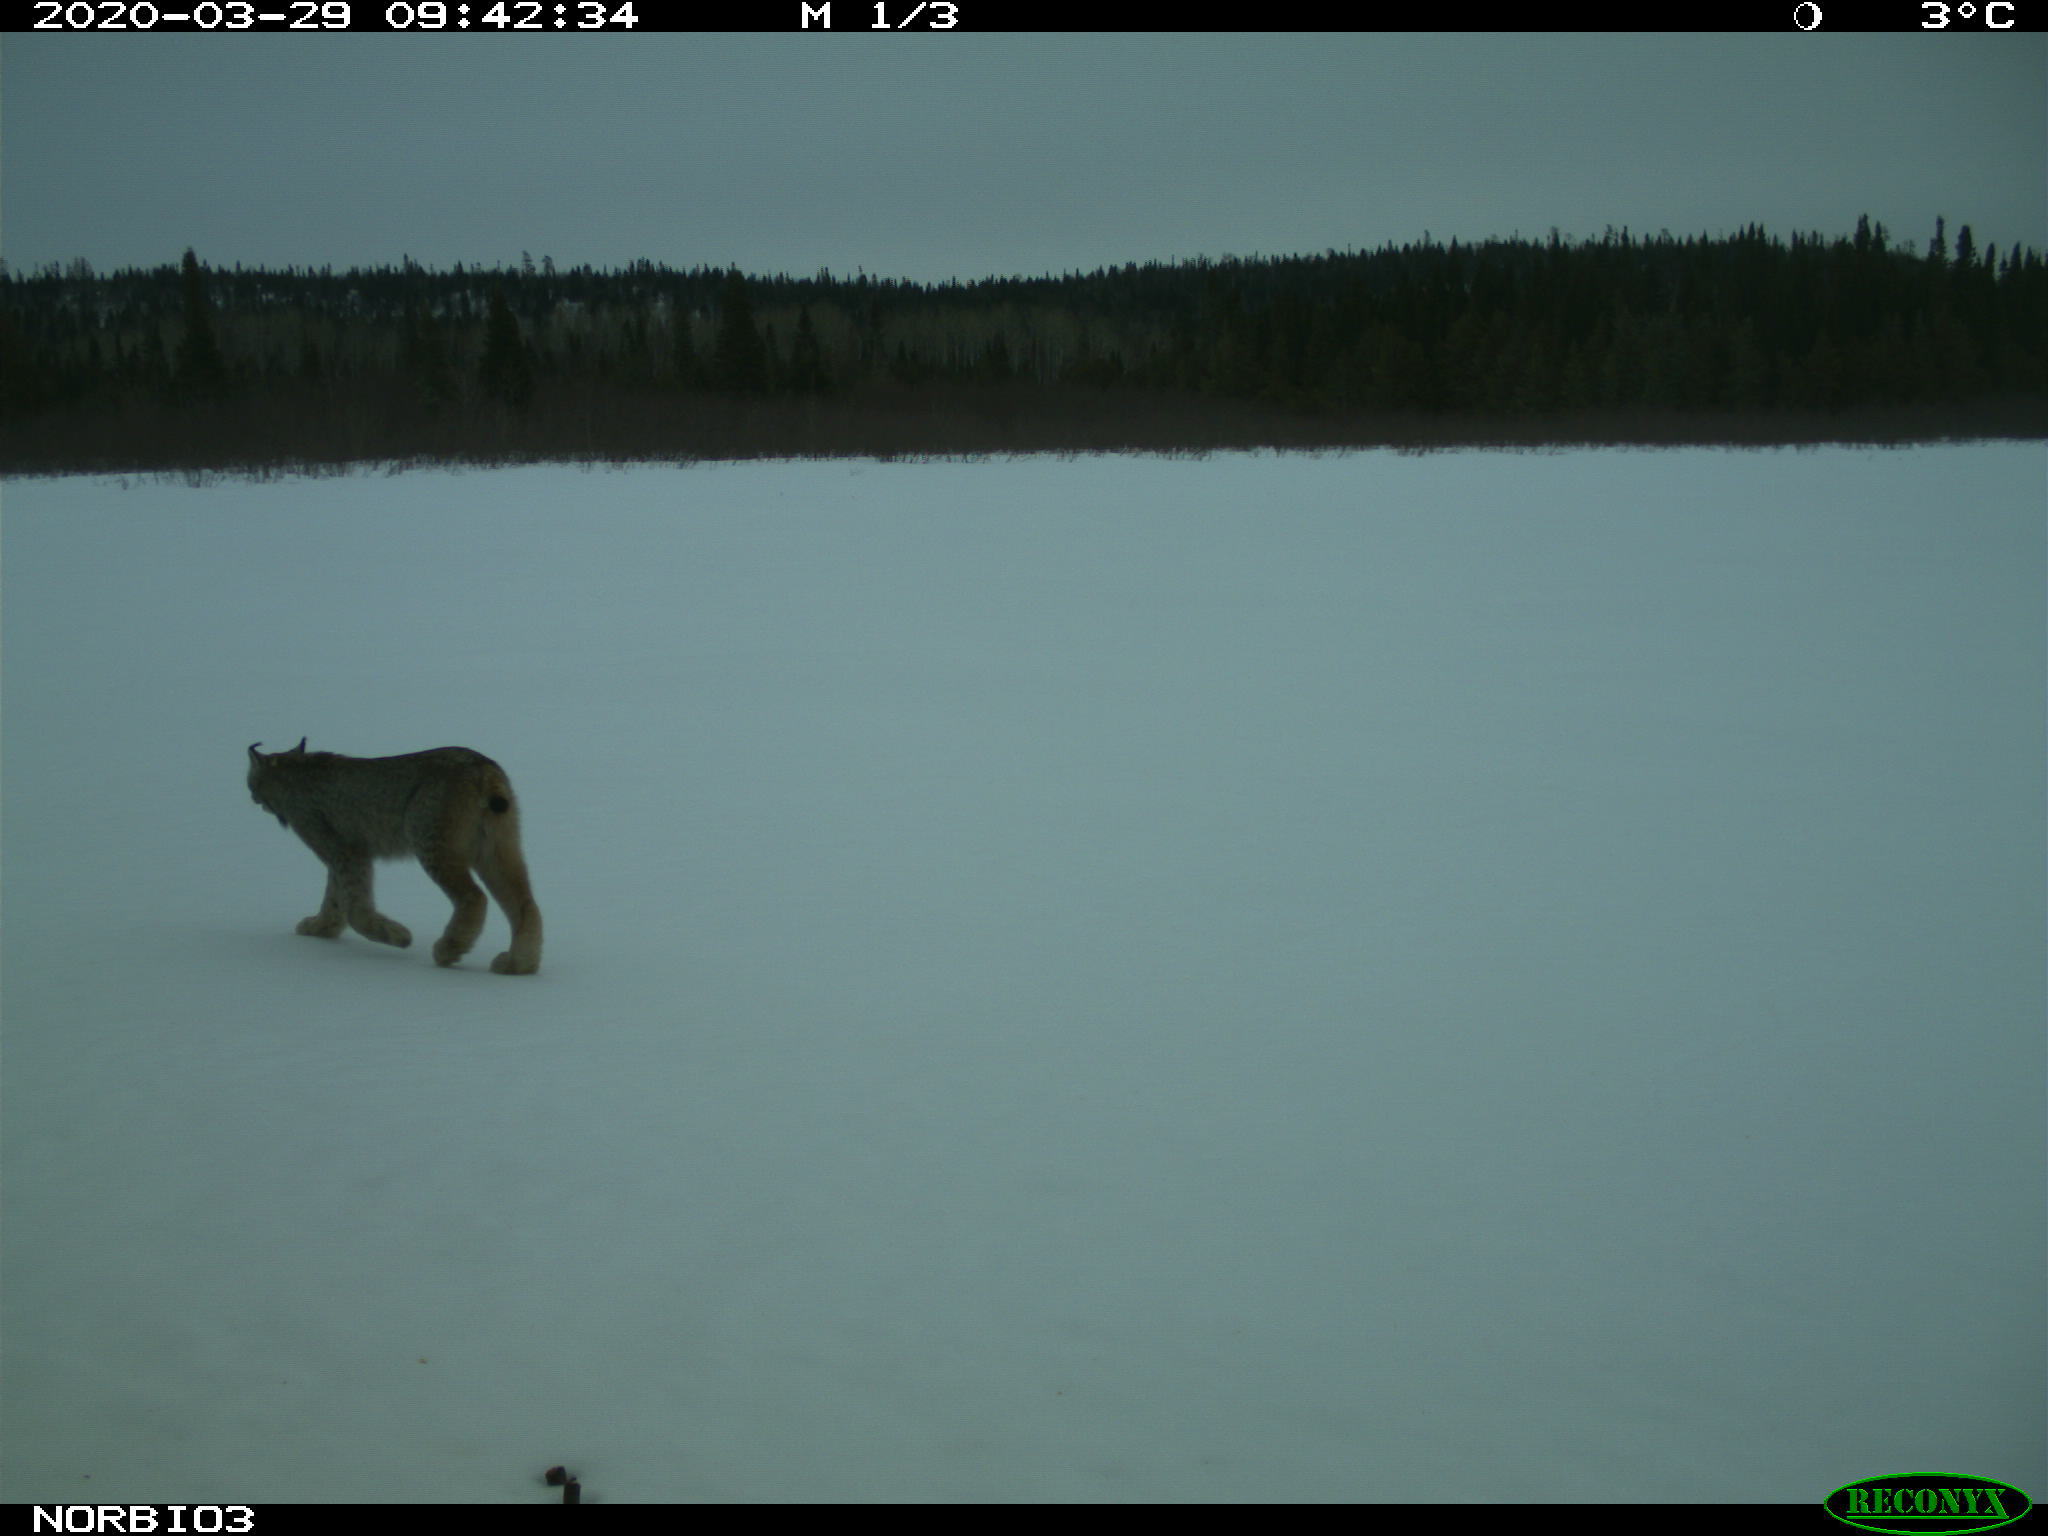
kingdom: Animalia
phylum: Chordata
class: Mammalia
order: Carnivora
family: Felidae
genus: Lynx
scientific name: Lynx canadensis
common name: Canadian lynx
